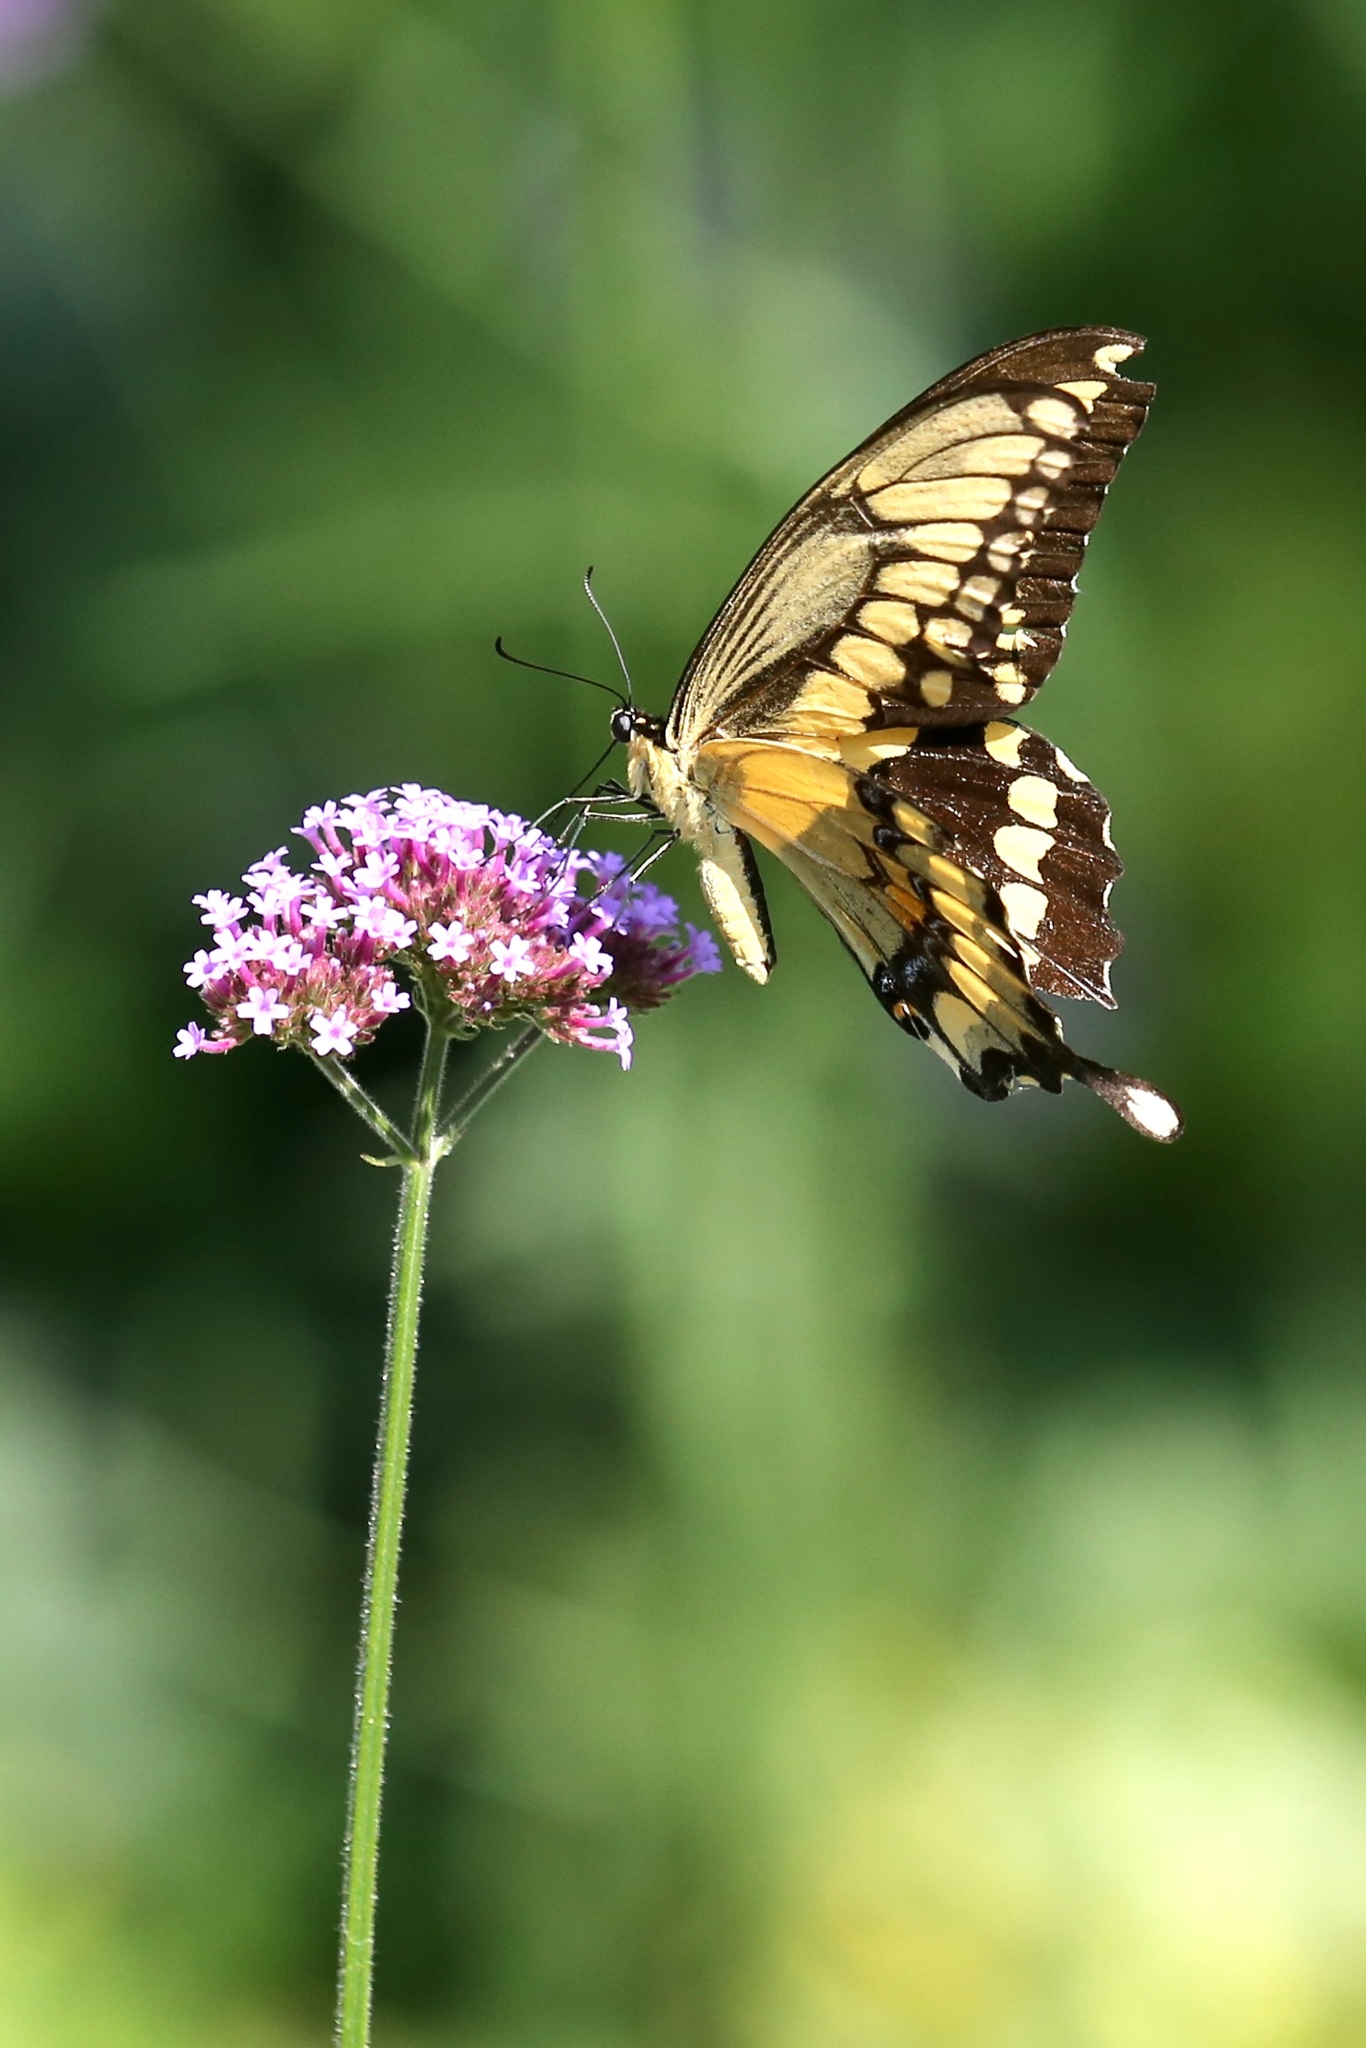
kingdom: Animalia
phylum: Arthropoda
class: Insecta
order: Lepidoptera
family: Papilionidae
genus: Papilio
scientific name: Papilio cresphontes
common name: Giant swallowtail
